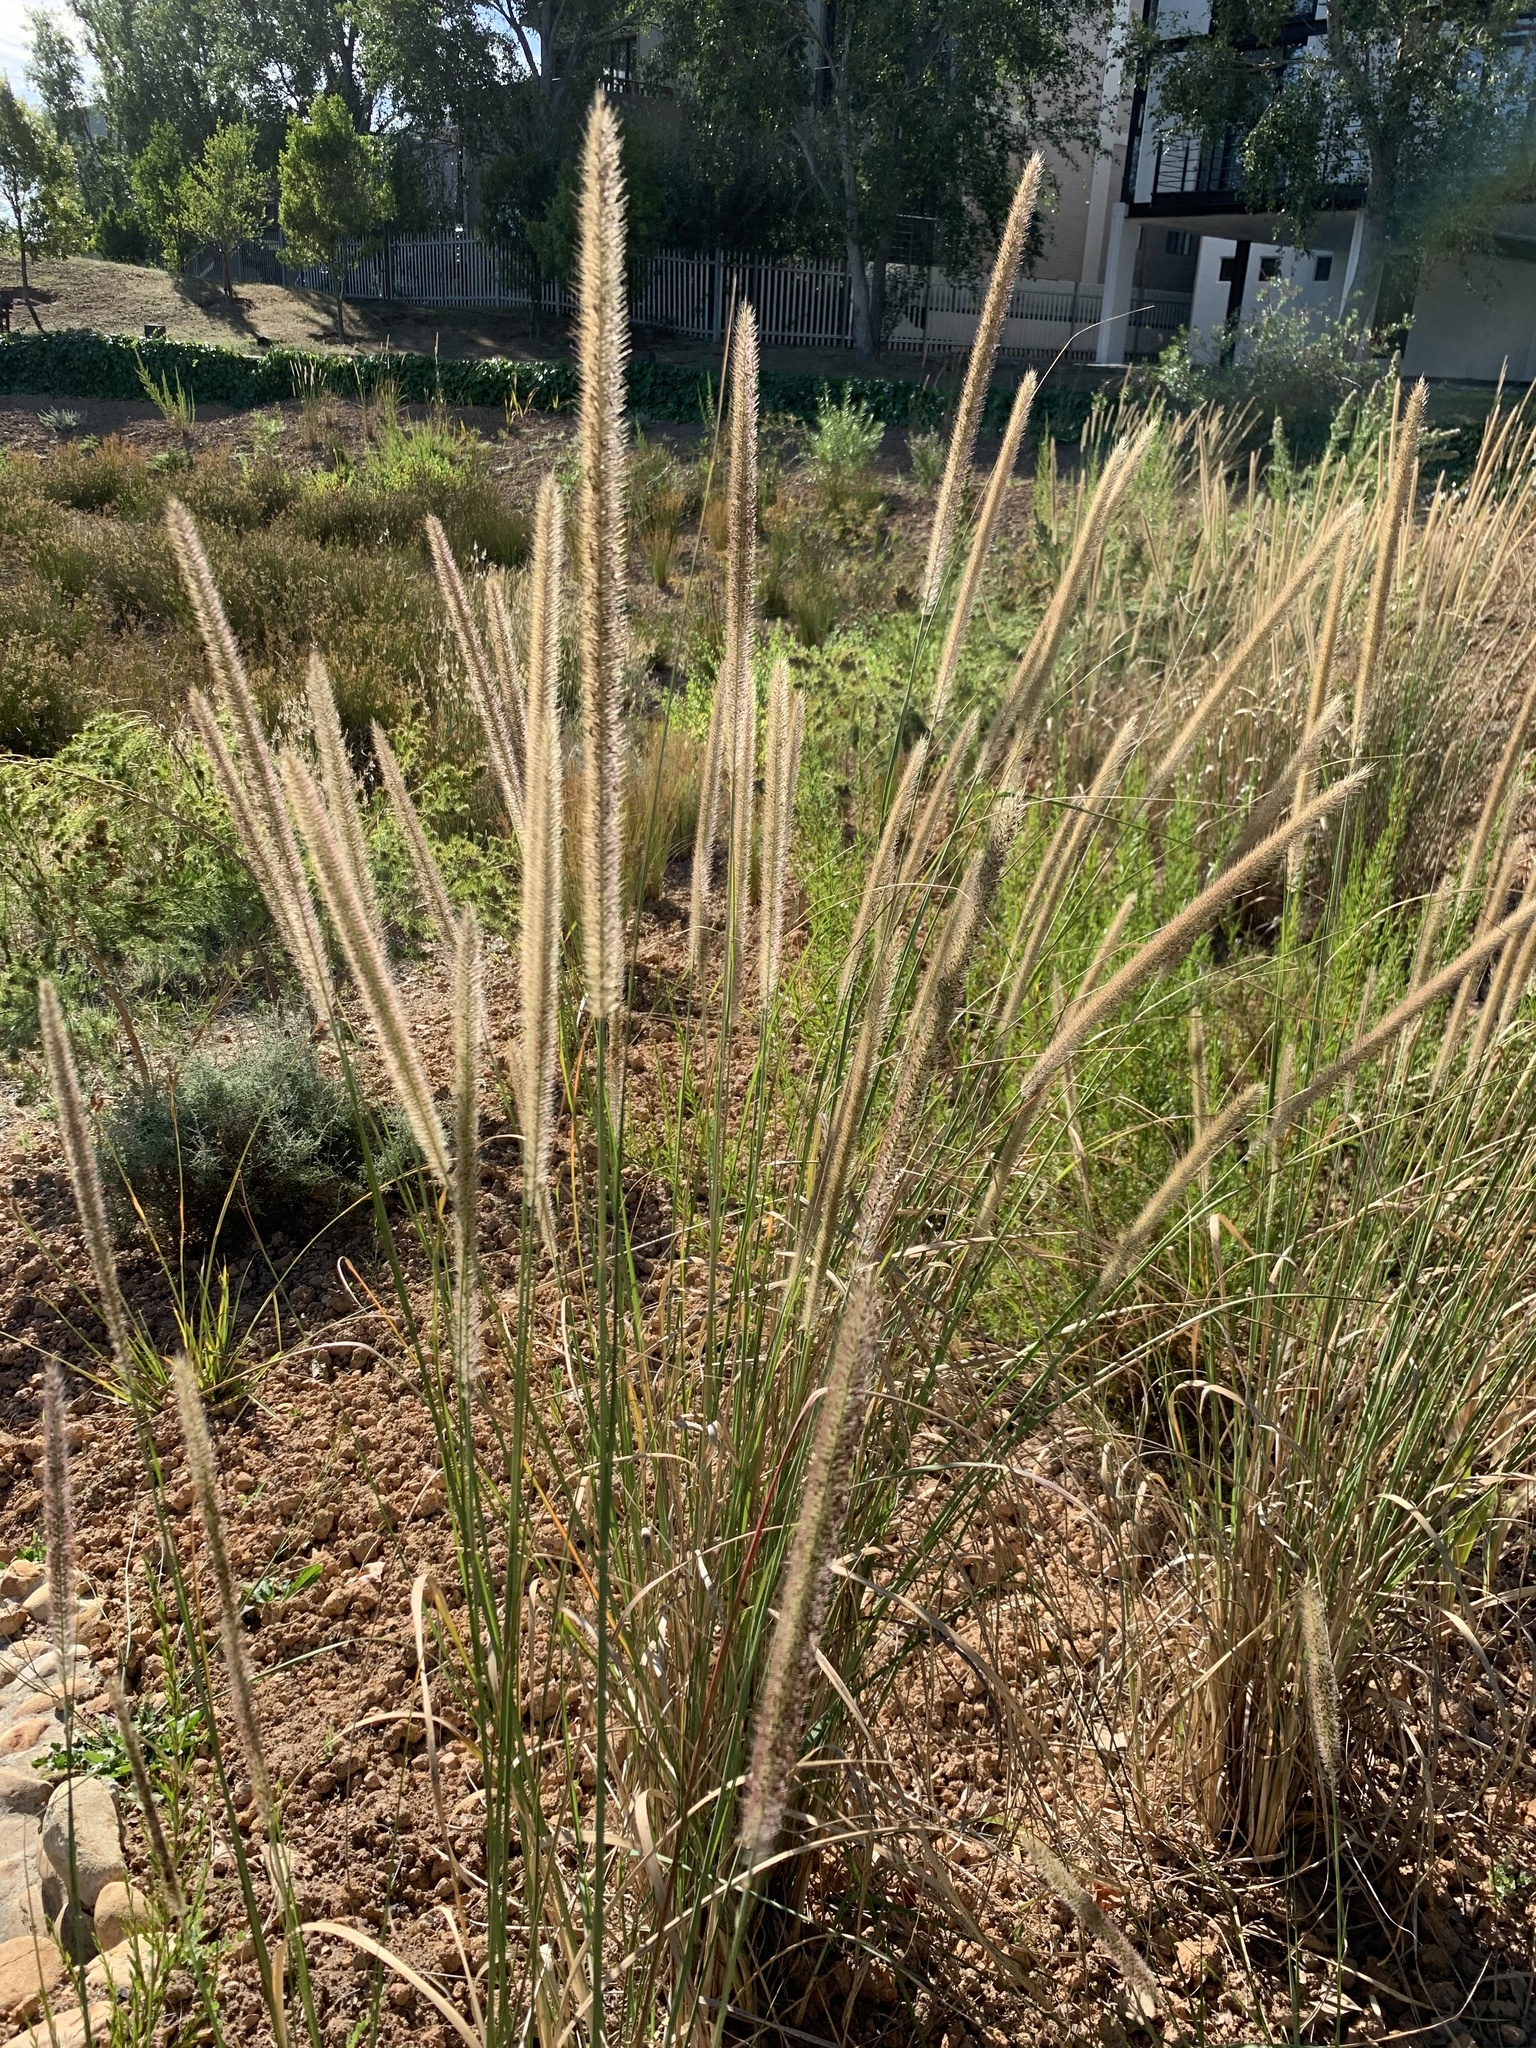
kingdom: Plantae
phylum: Tracheophyta
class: Liliopsida
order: Poales
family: Poaceae
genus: Cenchrus
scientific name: Cenchrus caudatus
